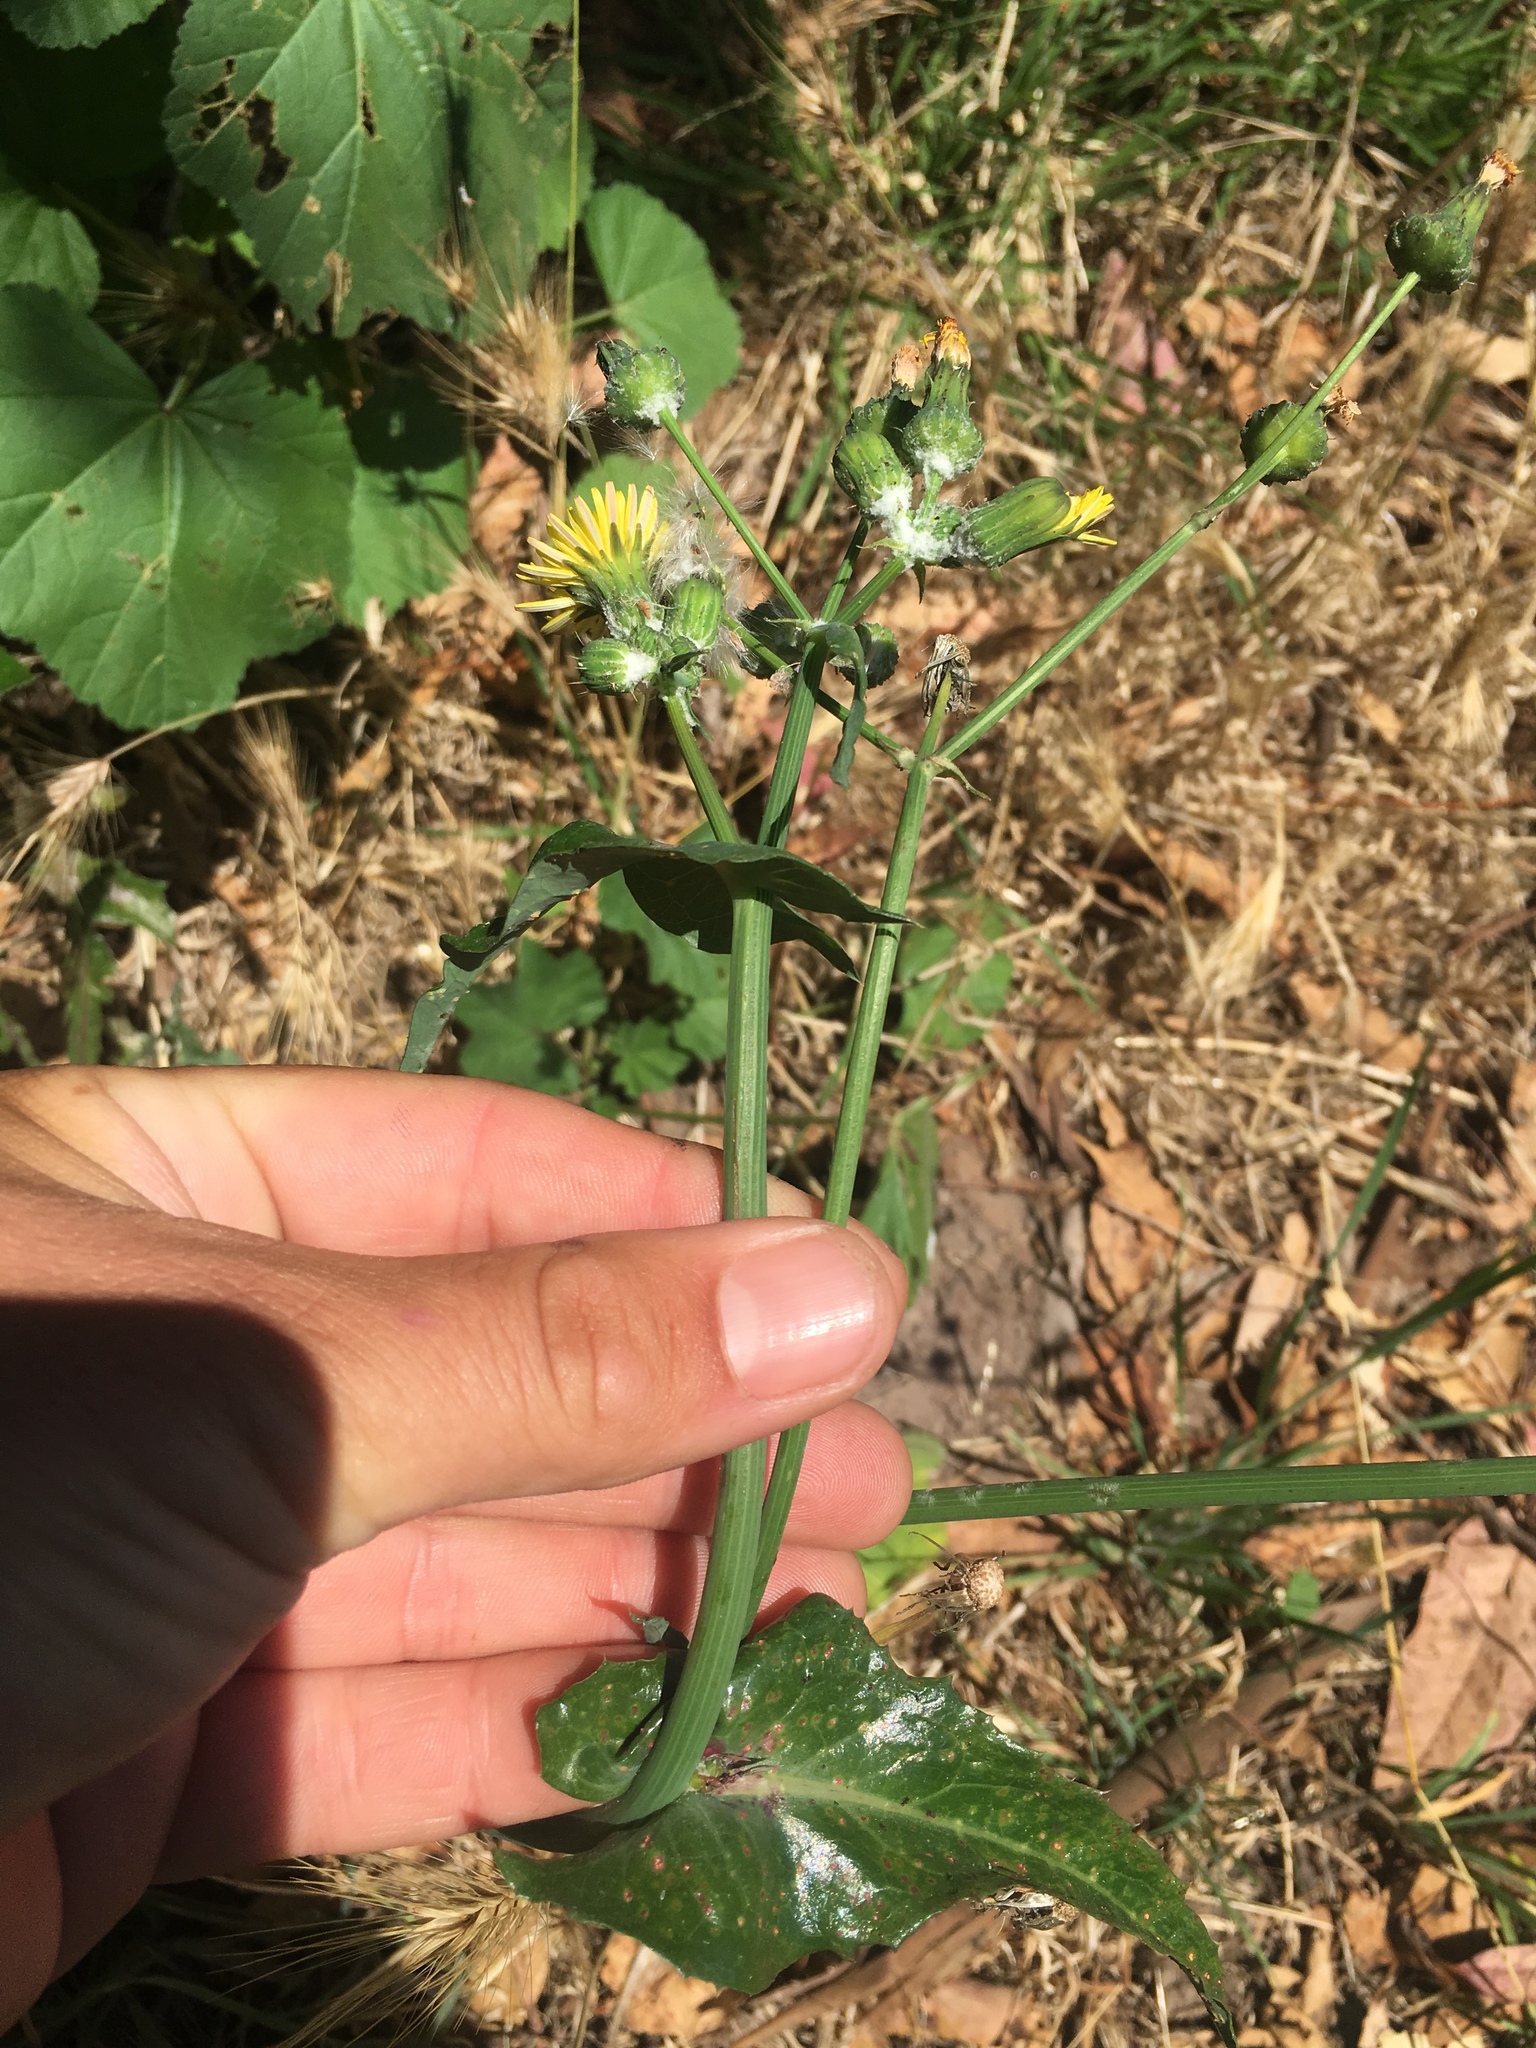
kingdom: Plantae
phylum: Tracheophyta
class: Magnoliopsida
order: Asterales
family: Asteraceae
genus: Sonchus
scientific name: Sonchus oleraceus
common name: Common sowthistle
